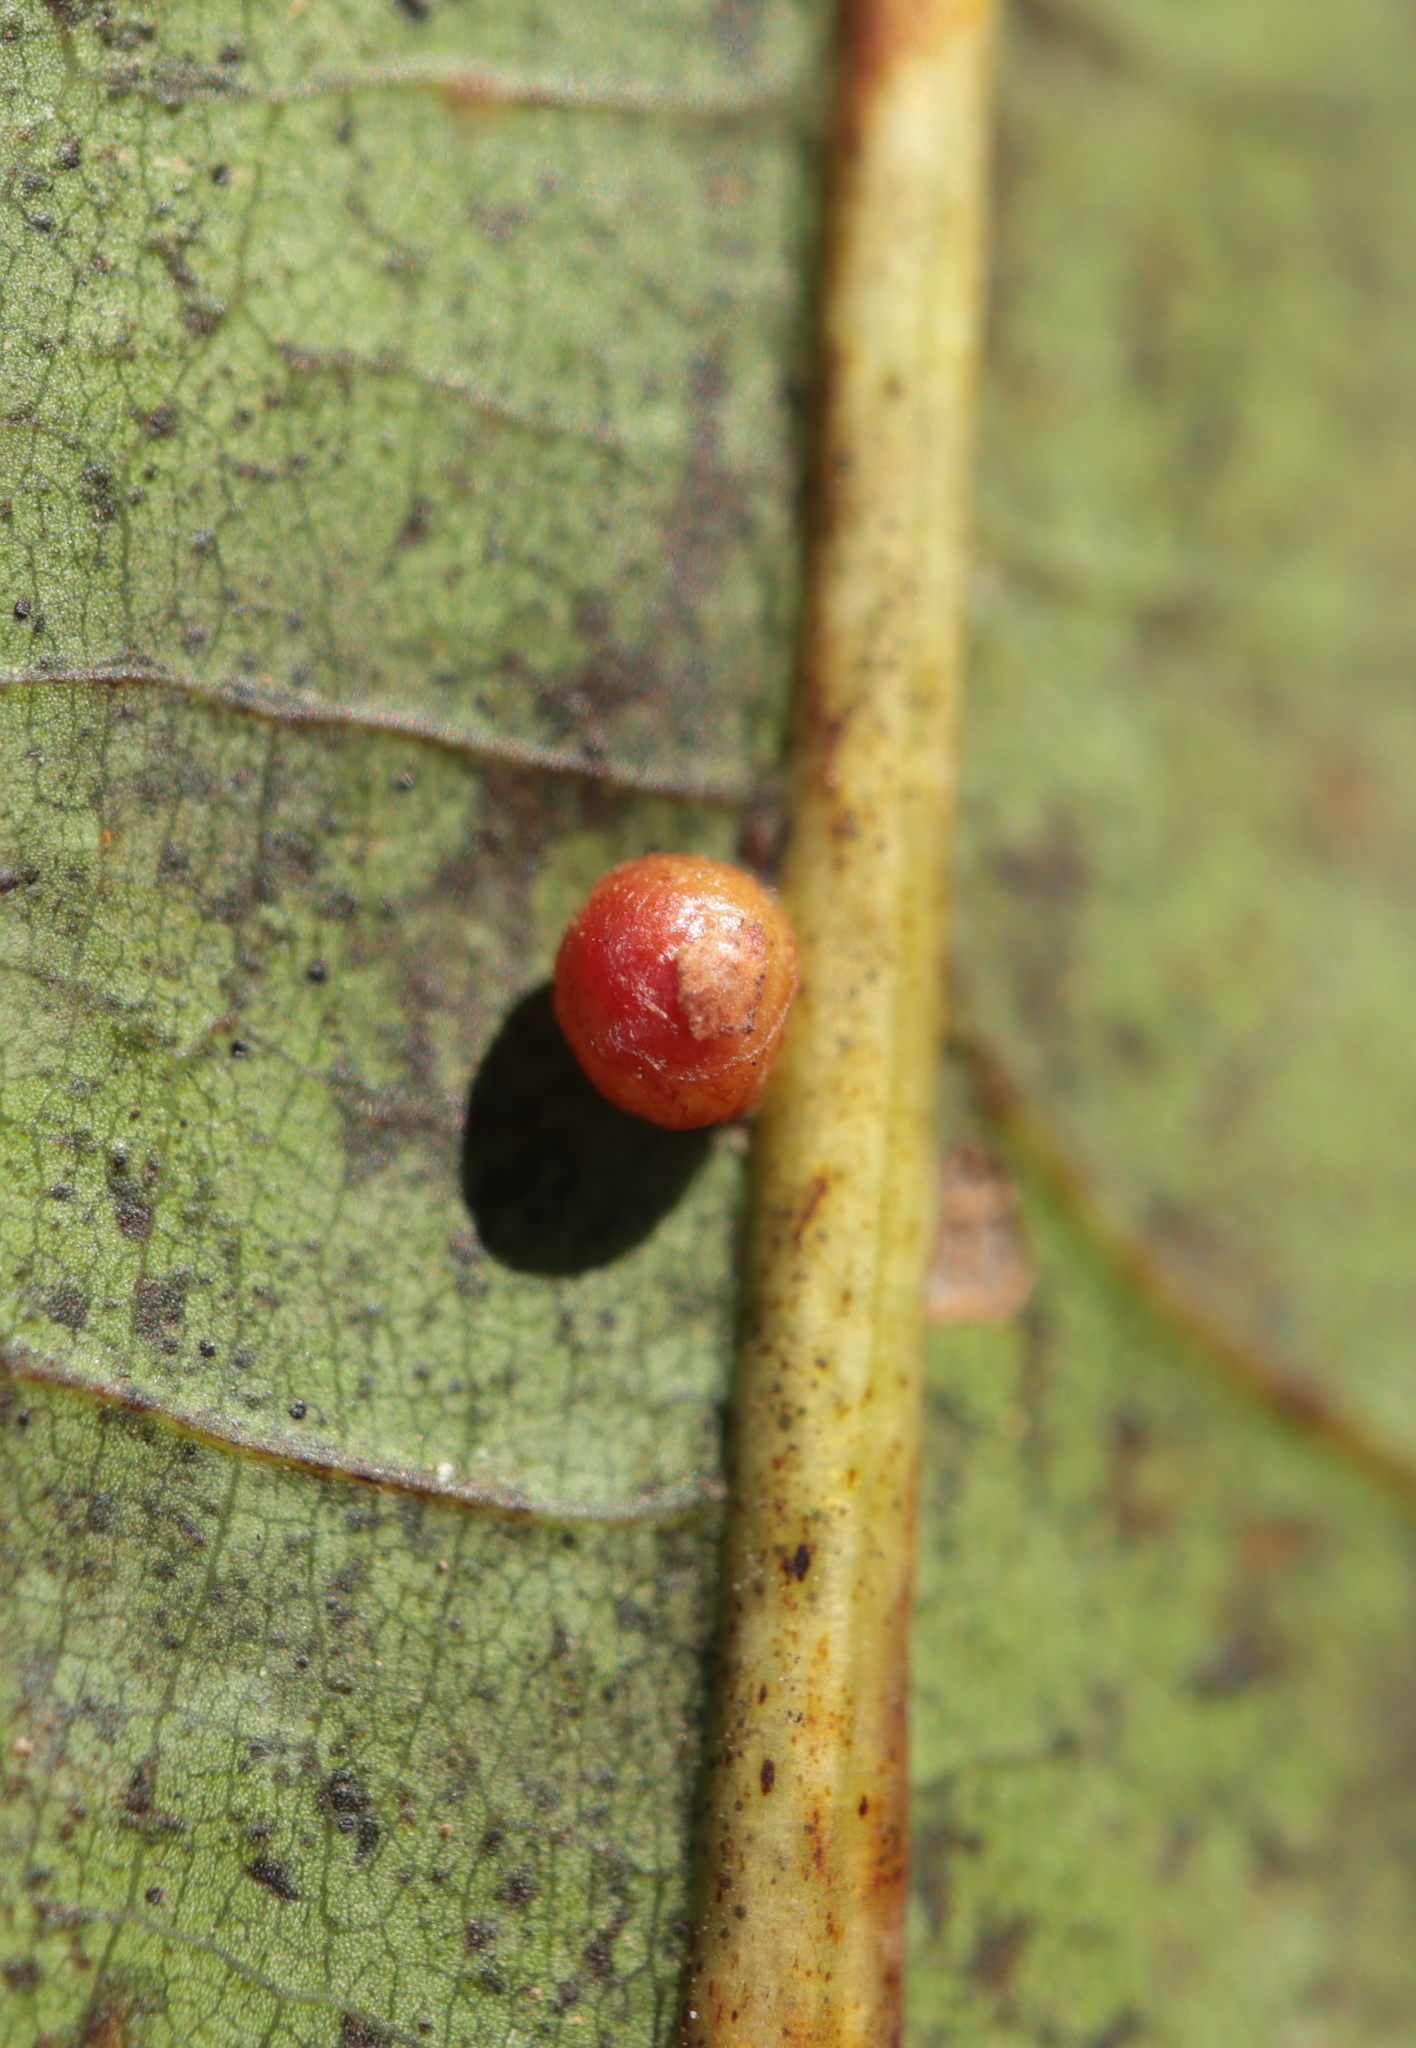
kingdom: Animalia
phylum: Arthropoda
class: Insecta
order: Diptera
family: Cecidomyiidae
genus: Polystepha
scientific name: Polystepha globosa
